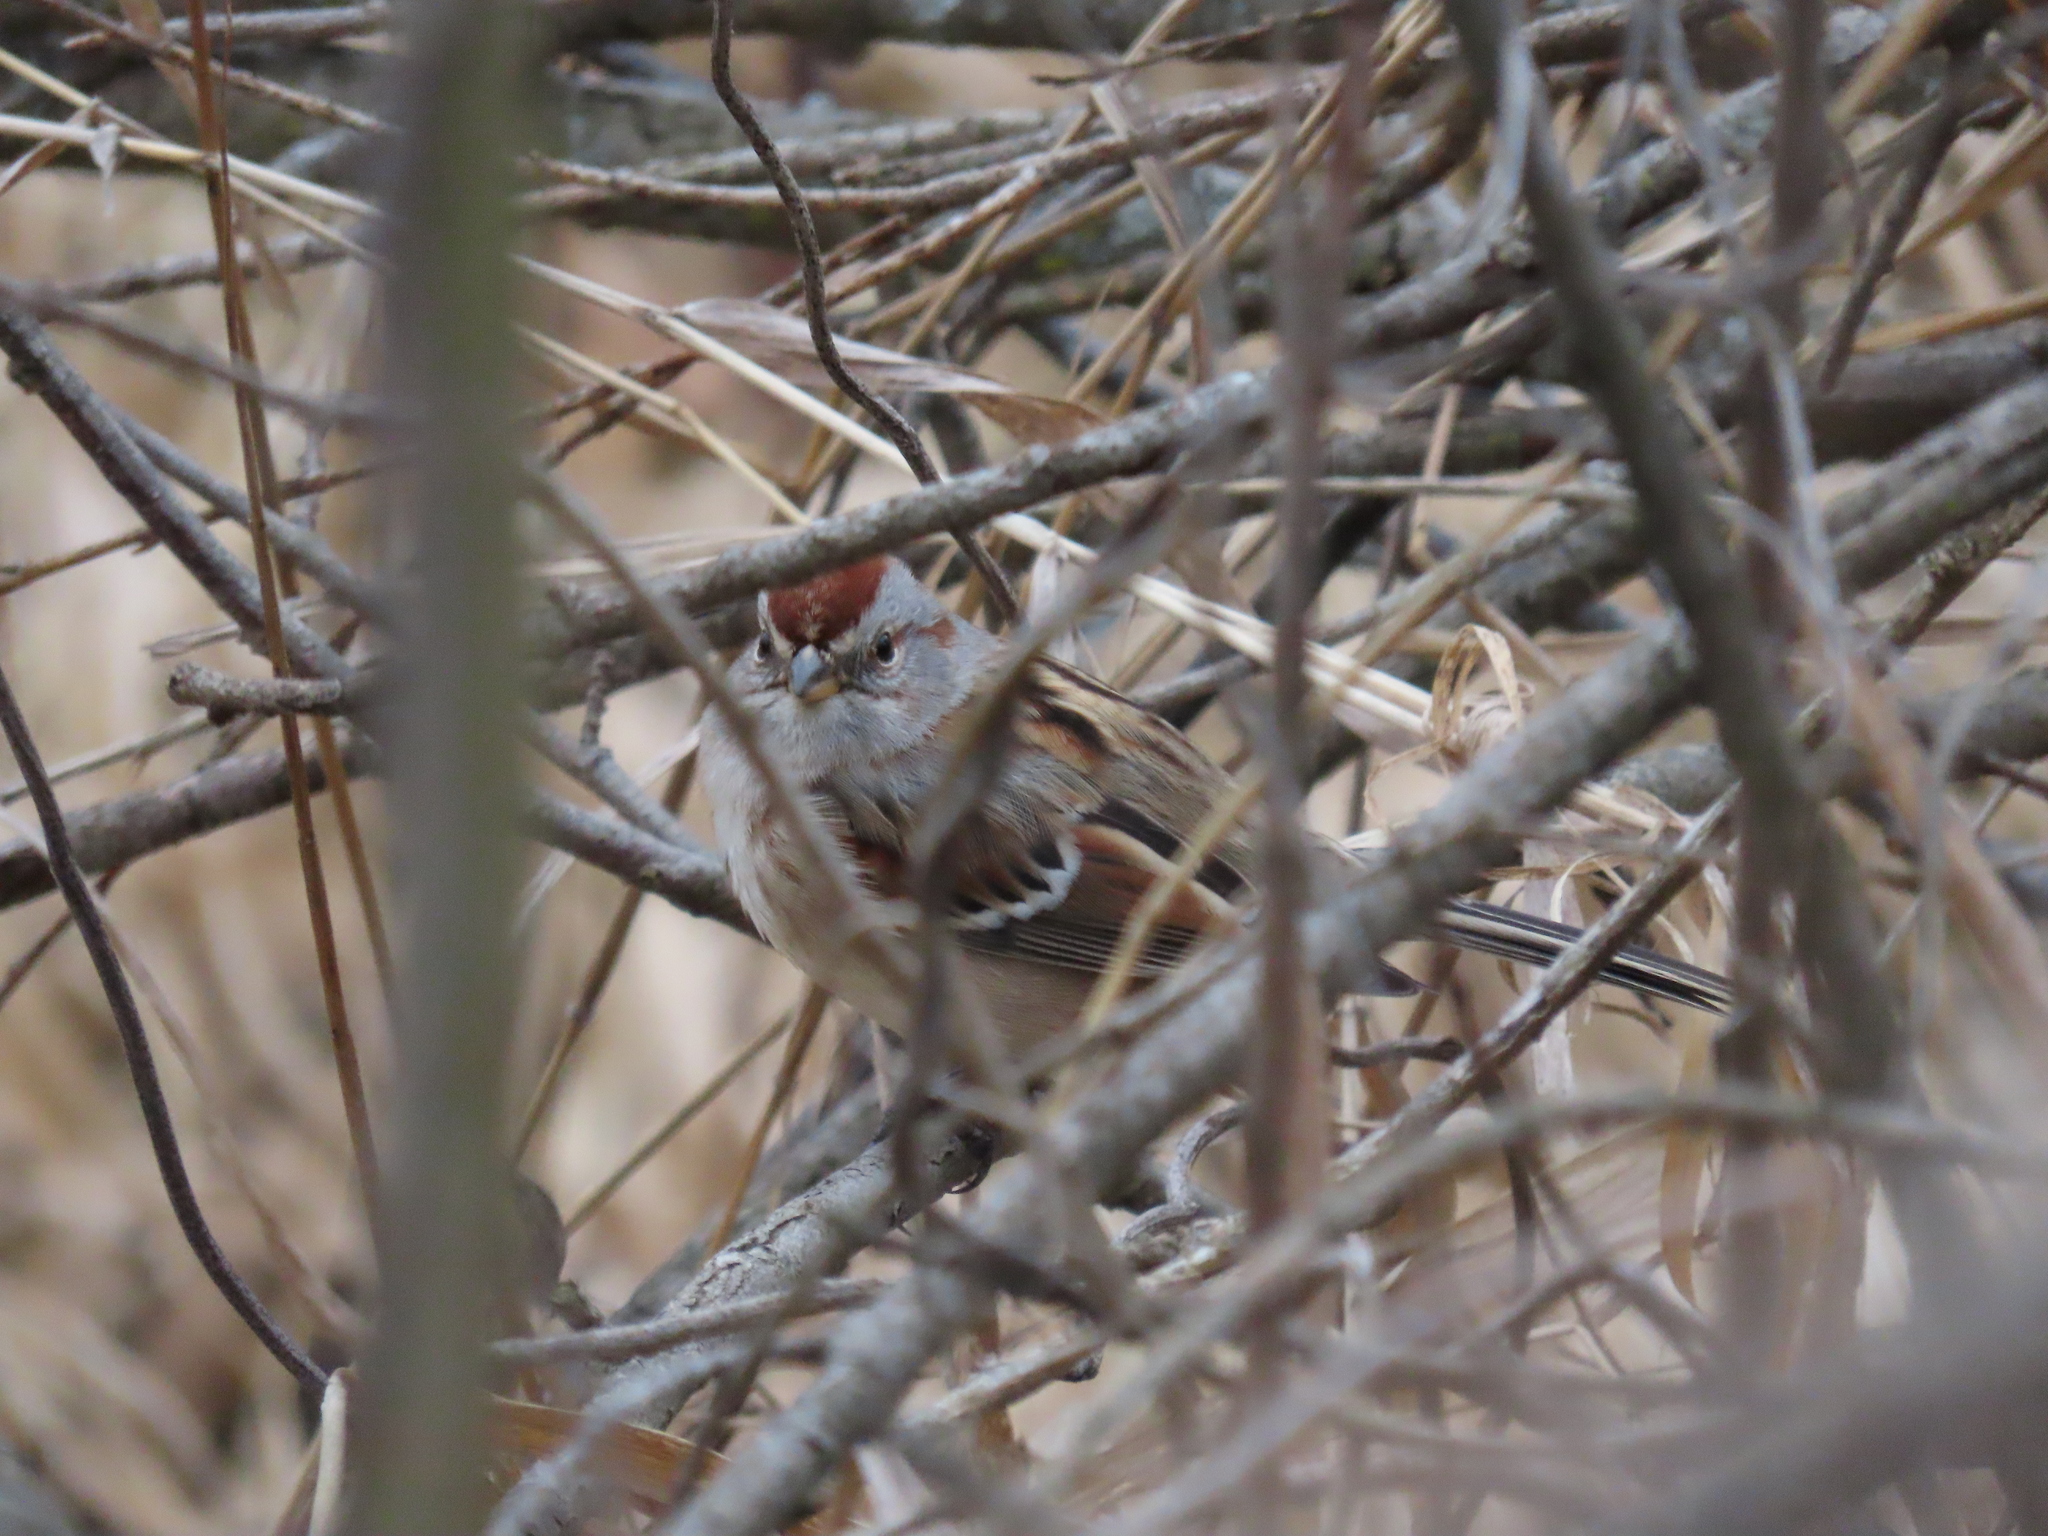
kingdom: Animalia
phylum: Chordata
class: Aves
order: Passeriformes
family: Passerellidae
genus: Spizelloides
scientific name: Spizelloides arborea
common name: American tree sparrow
